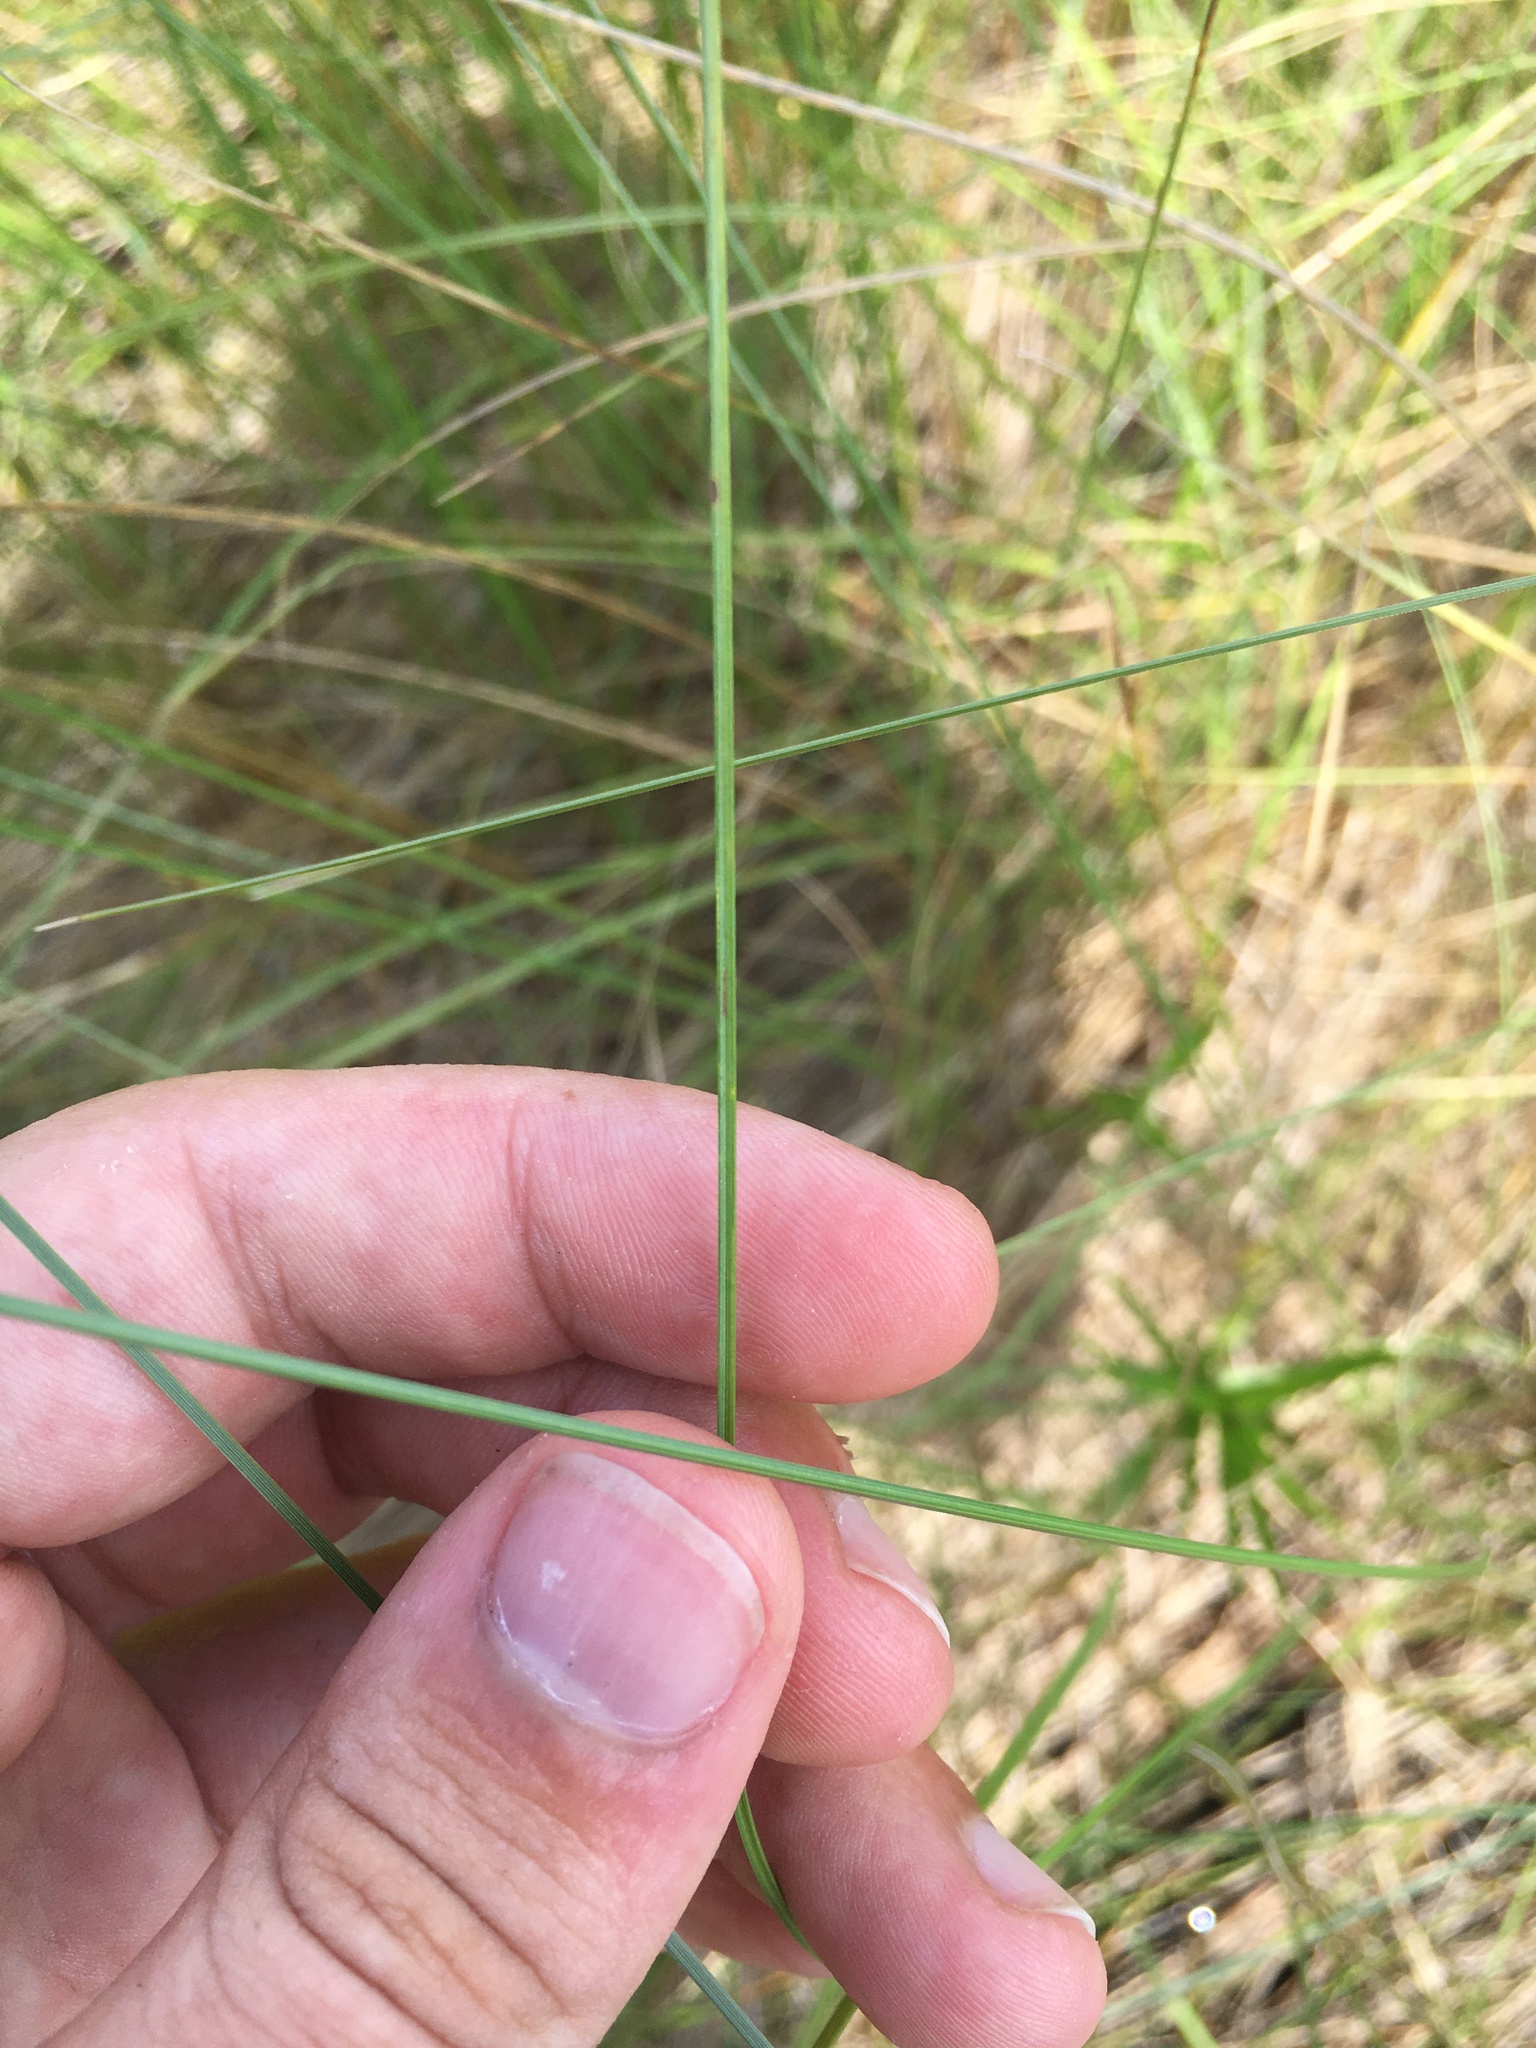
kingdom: Plantae
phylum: Tracheophyta
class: Liliopsida
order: Poales
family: Cyperaceae
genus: Carex
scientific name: Carex lasiocarpa
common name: Slender sedge
